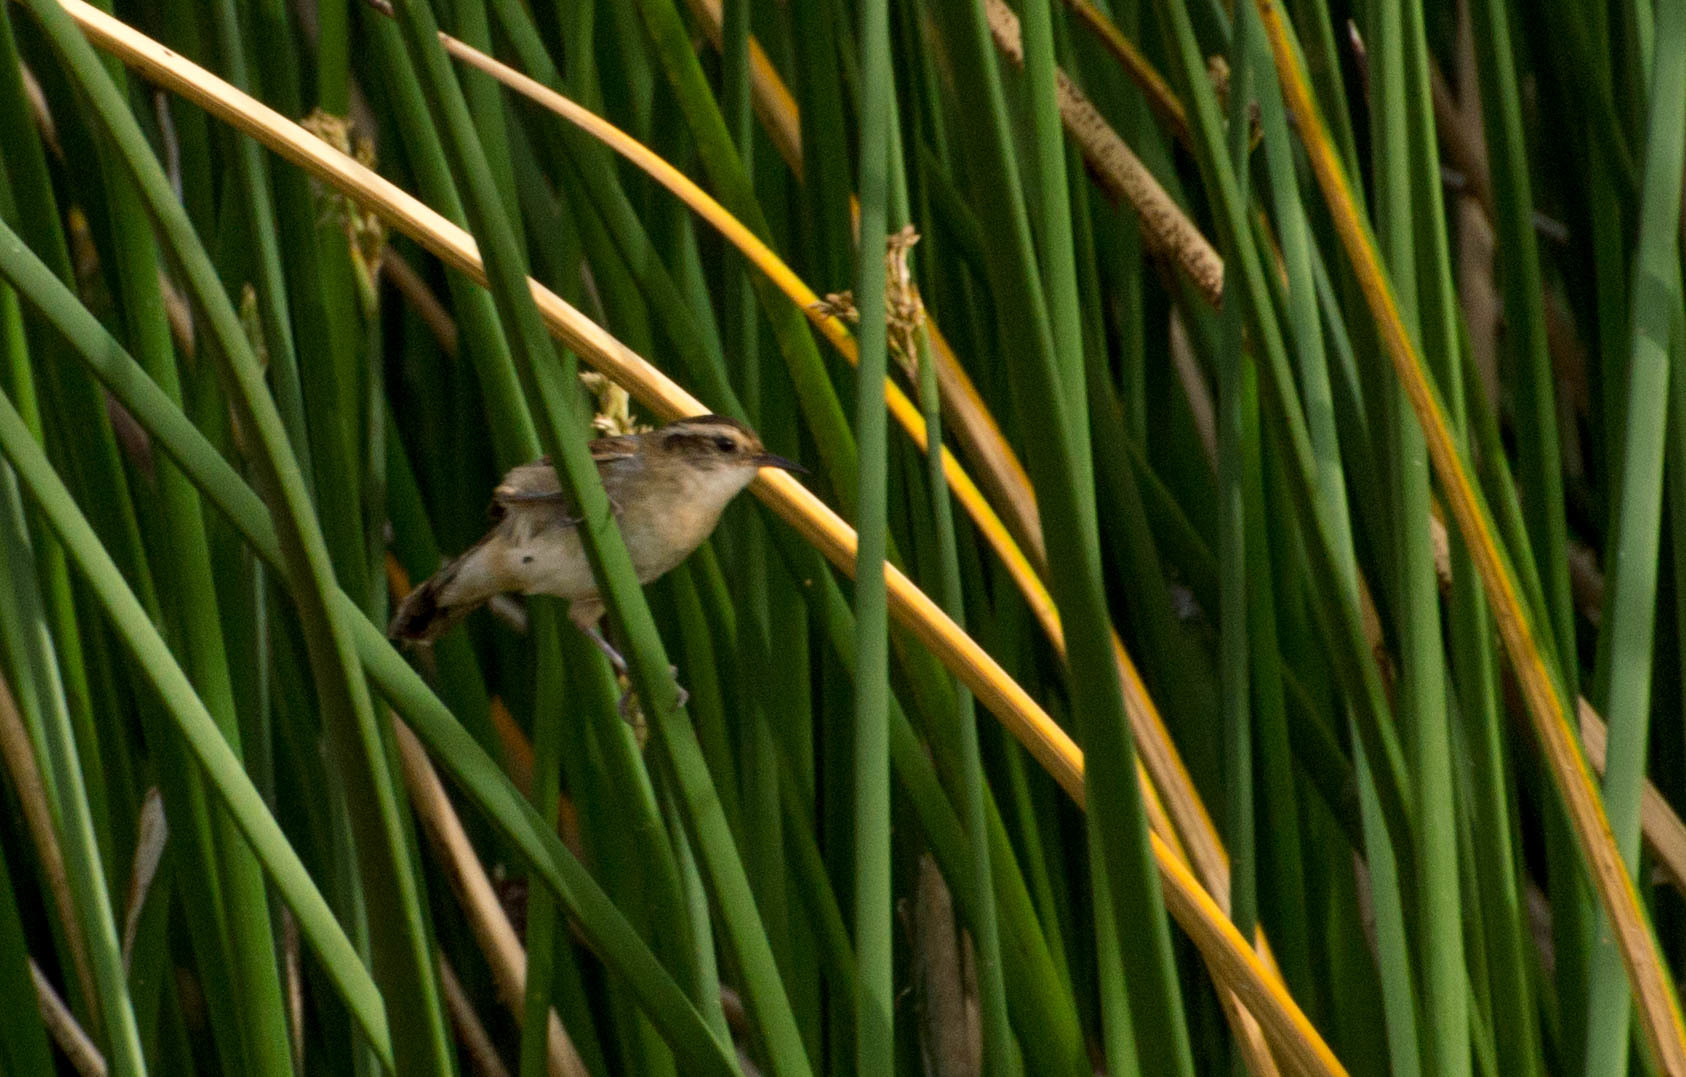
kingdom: Animalia
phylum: Chordata
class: Aves
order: Passeriformes
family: Furnariidae
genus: Phleocryptes
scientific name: Phleocryptes melanops
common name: Wren-like rushbird
